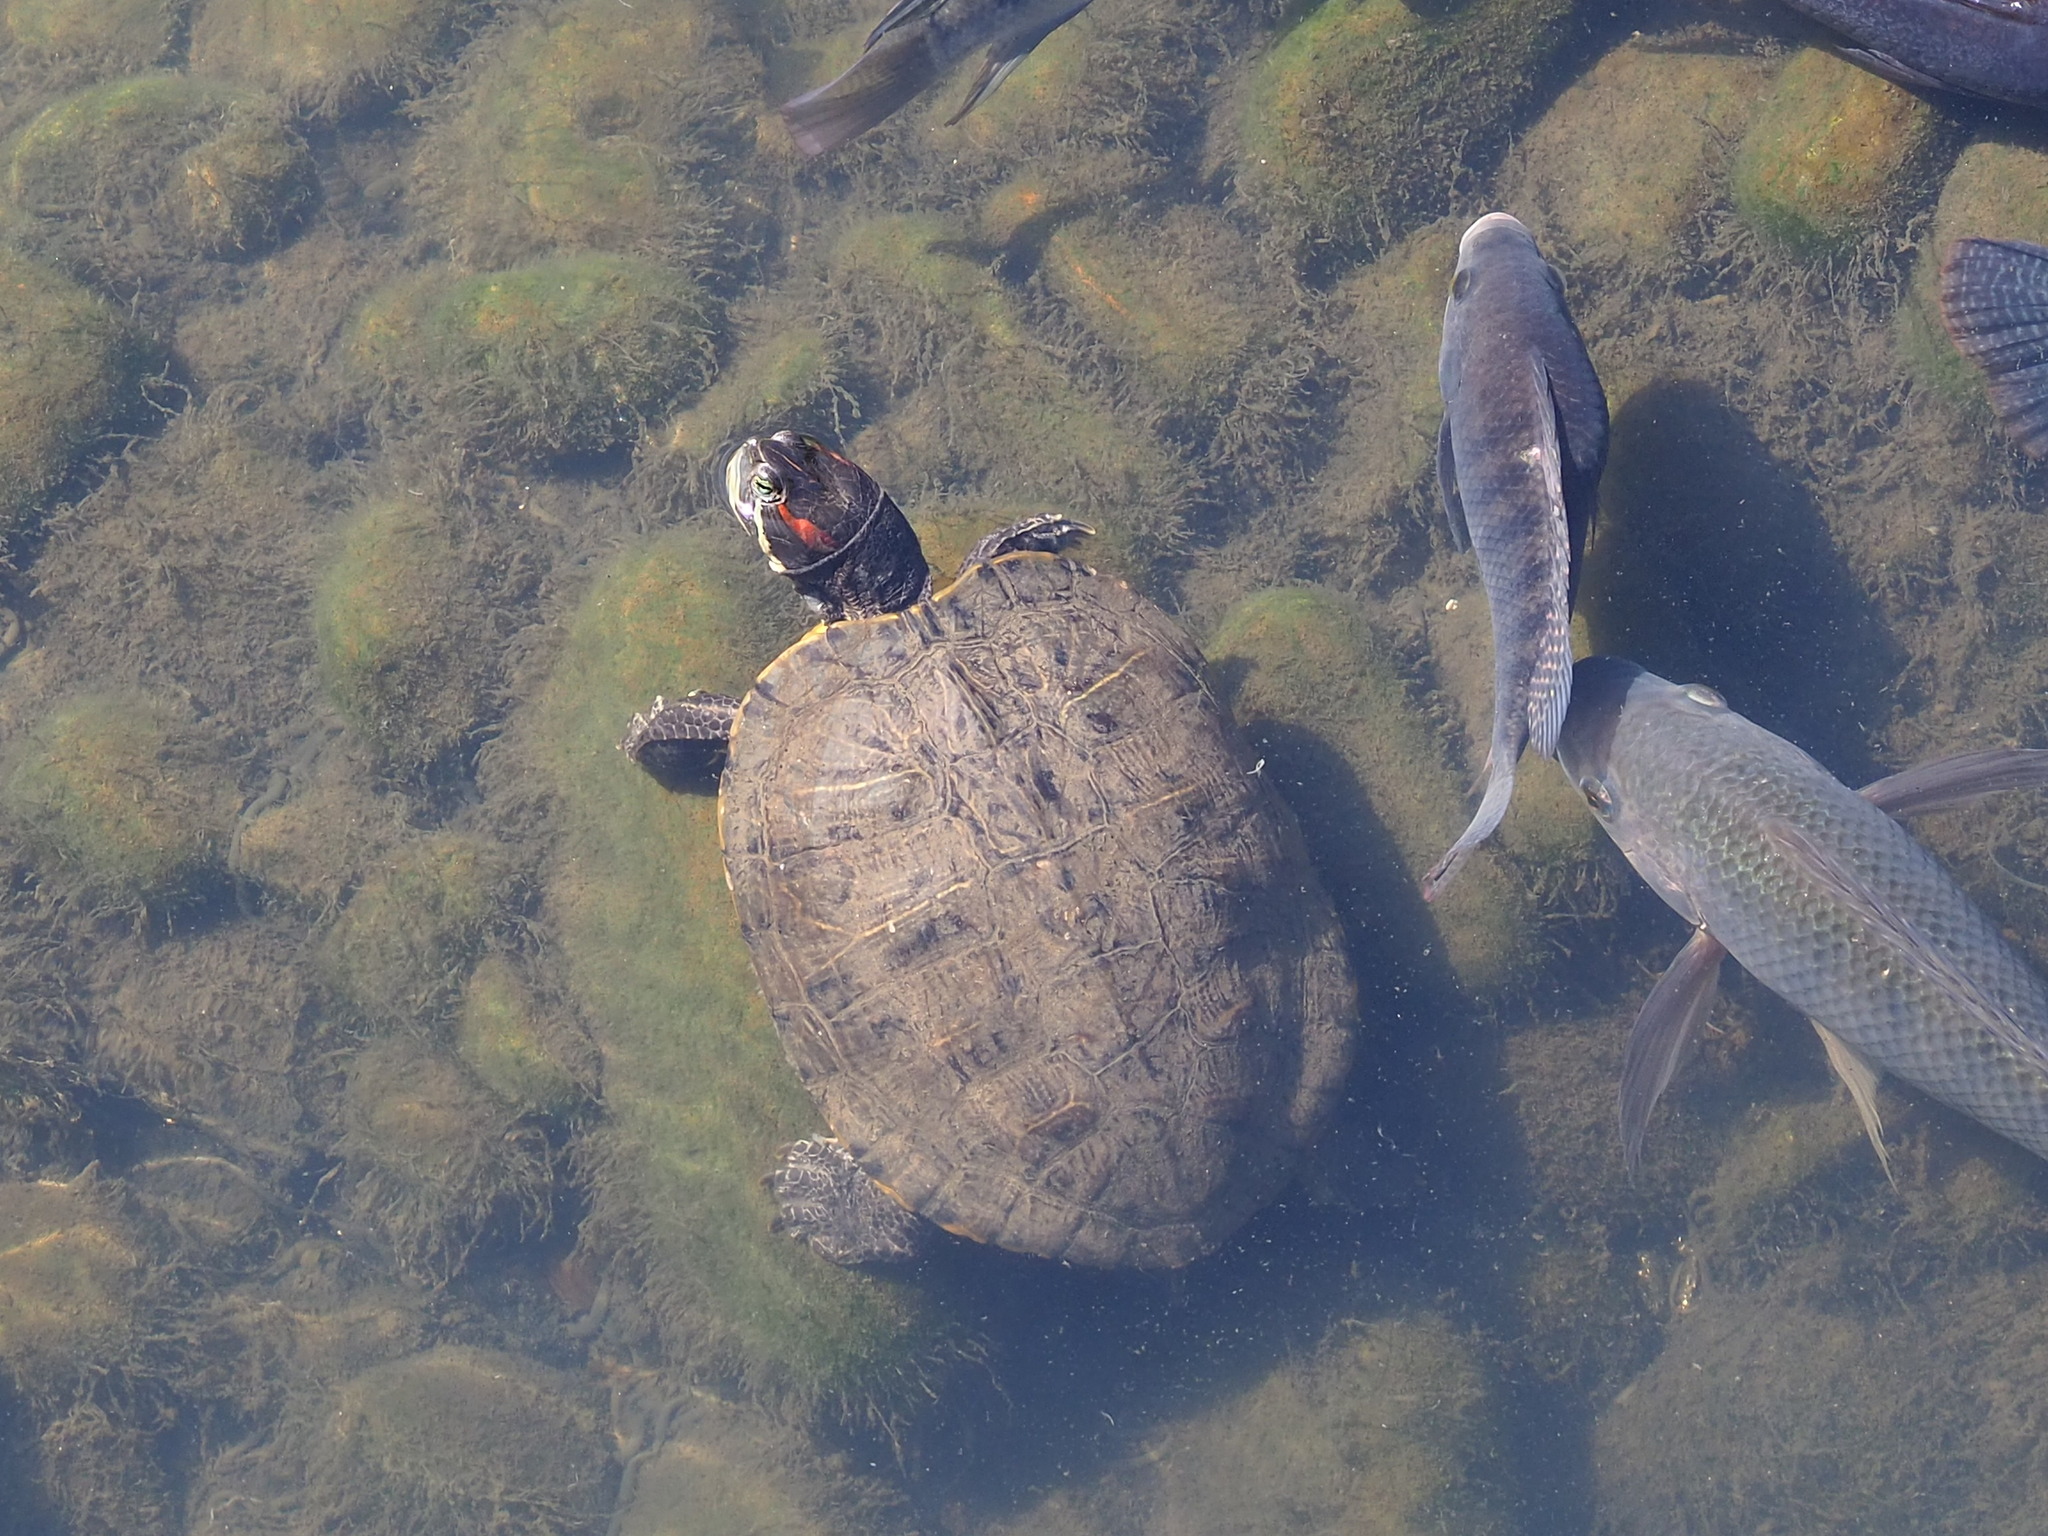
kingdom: Animalia
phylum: Chordata
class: Testudines
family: Emydidae
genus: Trachemys
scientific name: Trachemys scripta
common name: Slider
